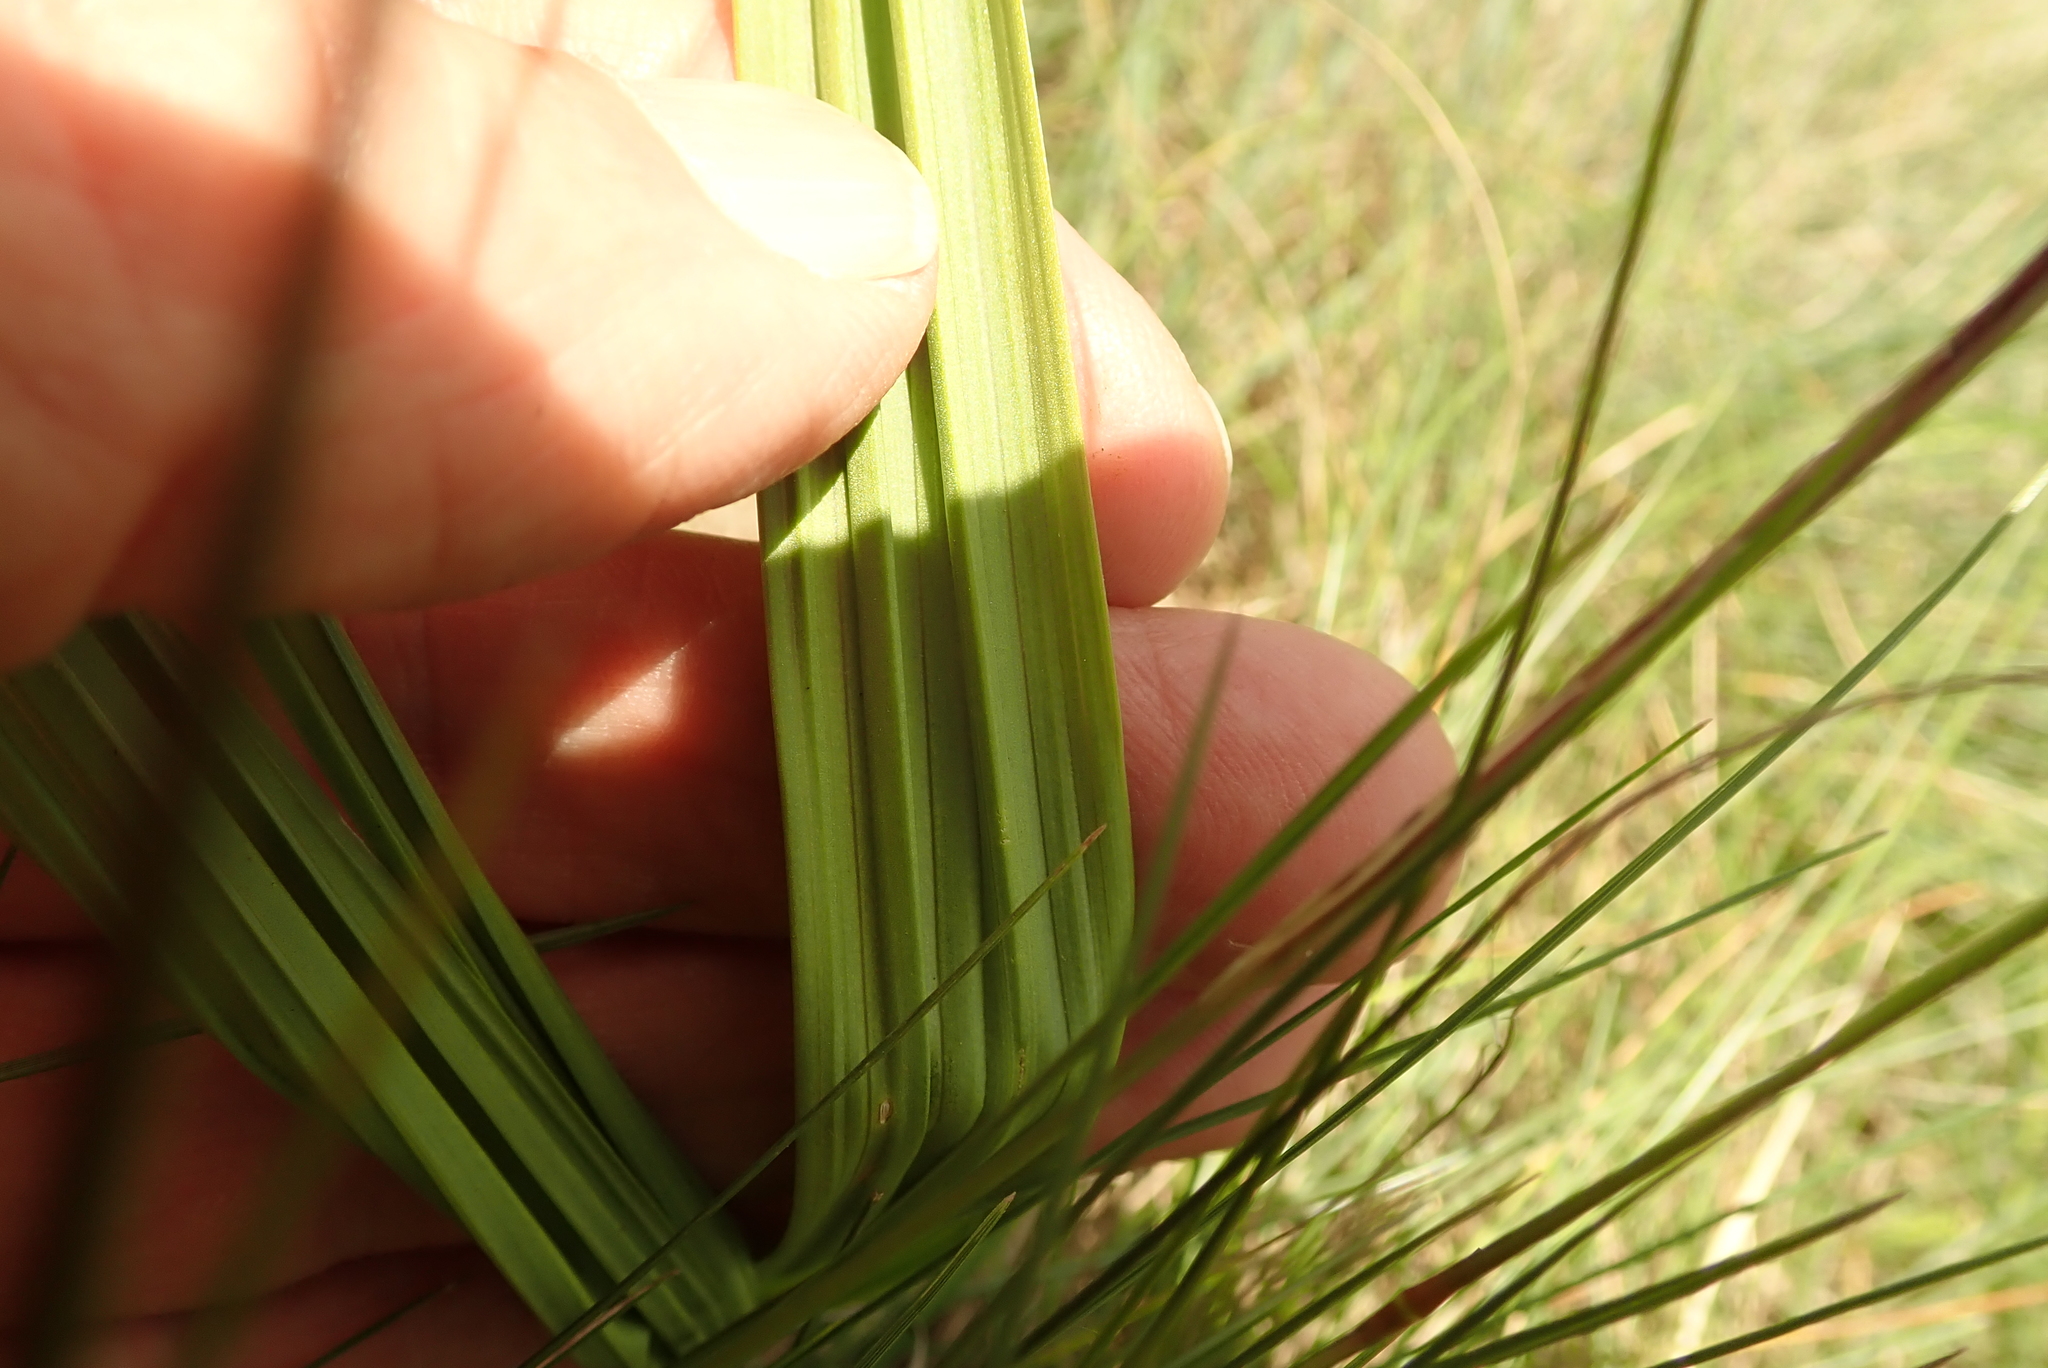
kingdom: Plantae
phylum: Tracheophyta
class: Liliopsida
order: Asparagales
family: Orchidaceae
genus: Eulophia
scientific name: Eulophia foliosa
